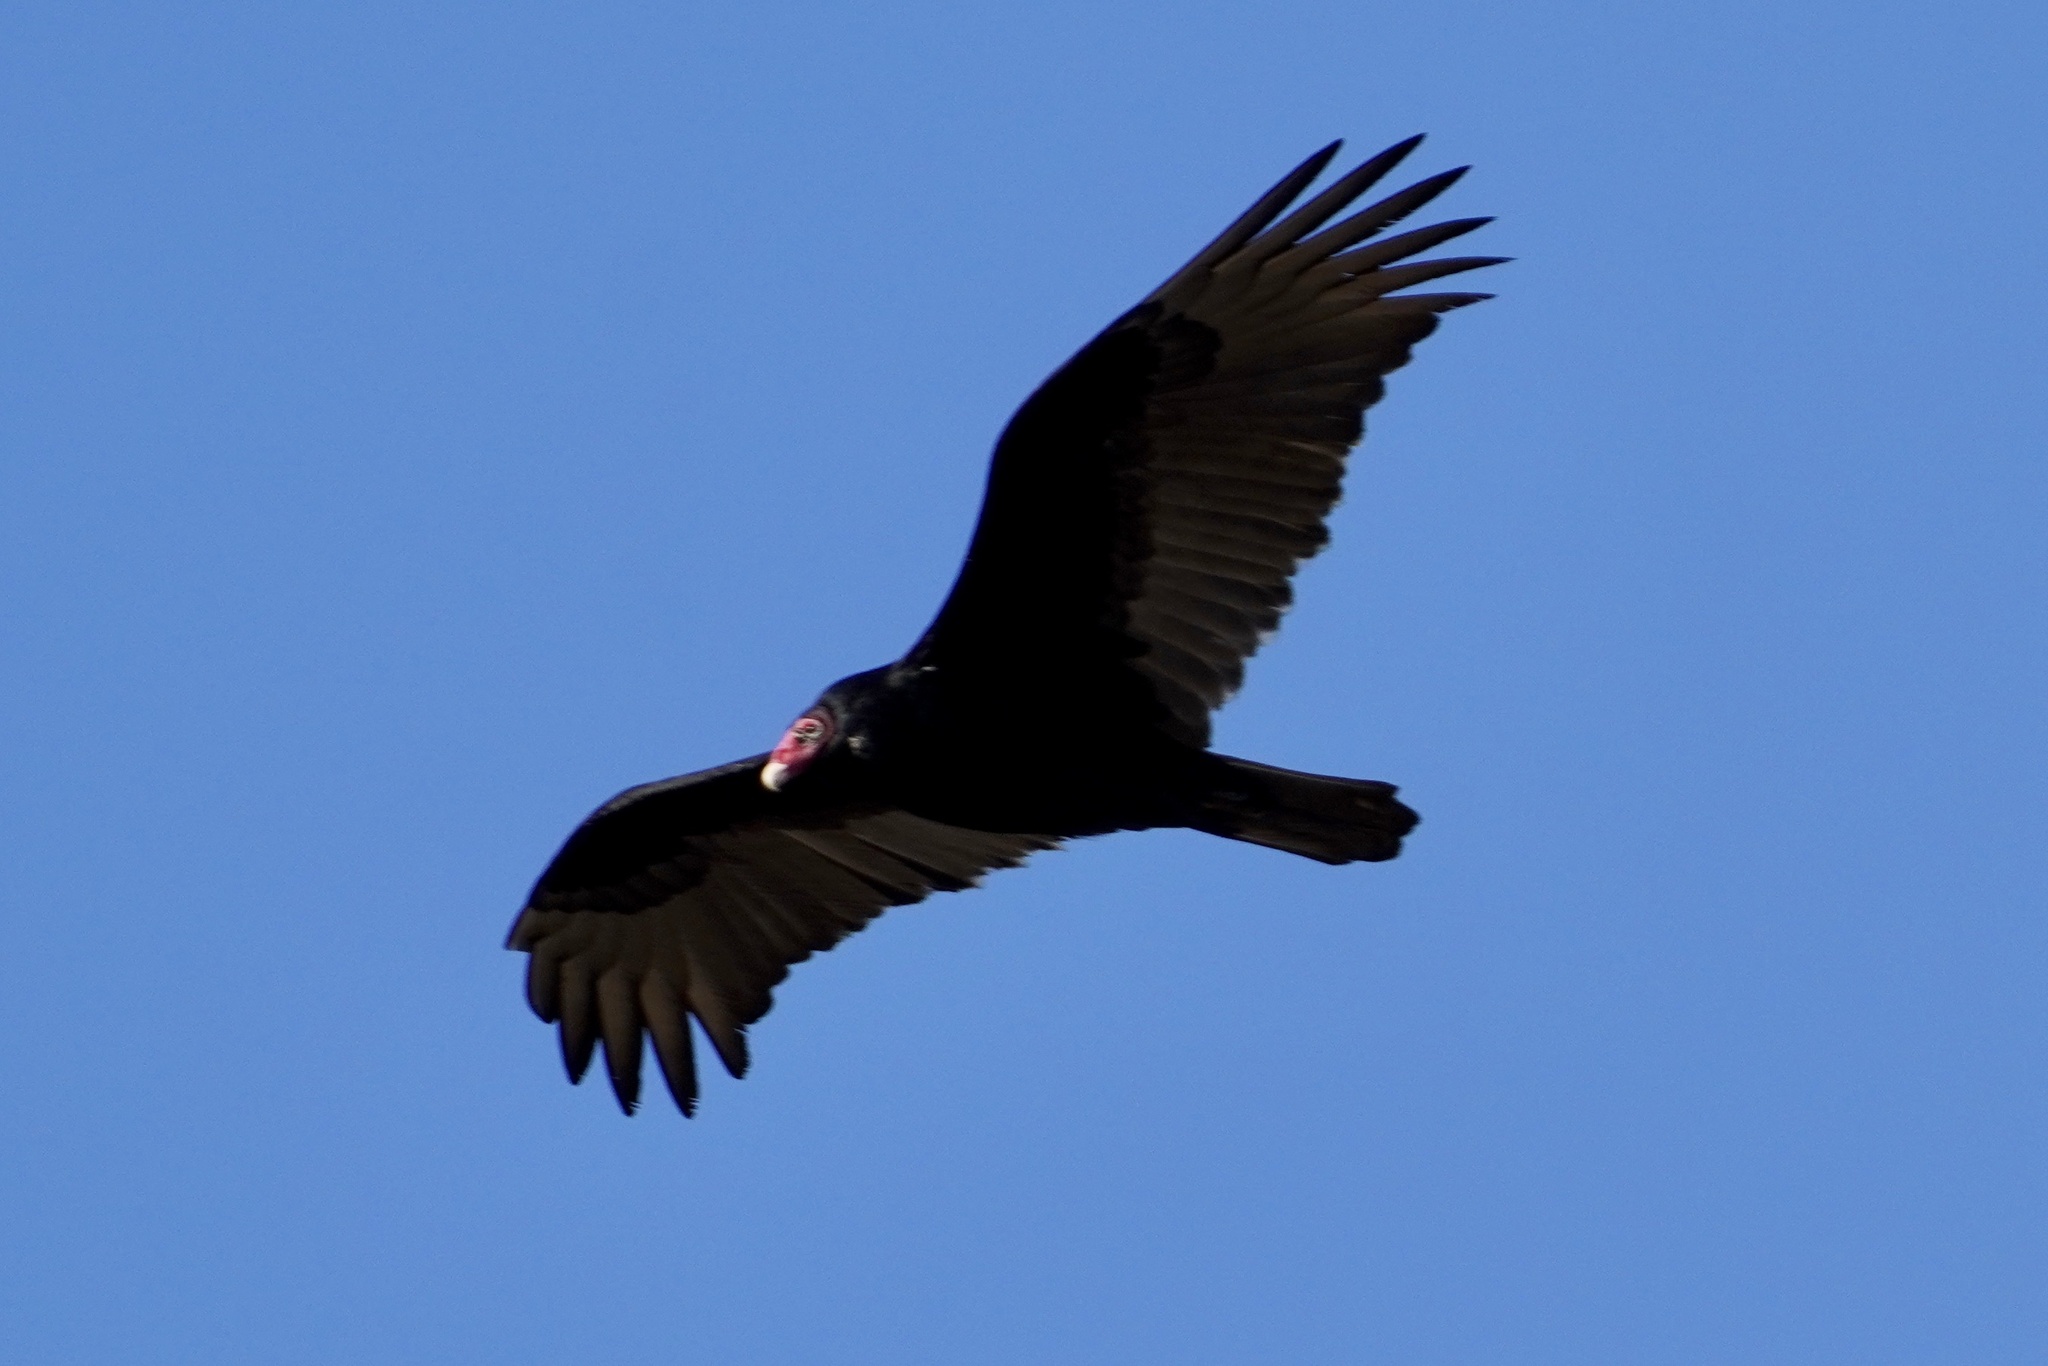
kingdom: Animalia
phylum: Chordata
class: Aves
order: Accipitriformes
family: Cathartidae
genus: Cathartes
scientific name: Cathartes aura
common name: Turkey vulture
